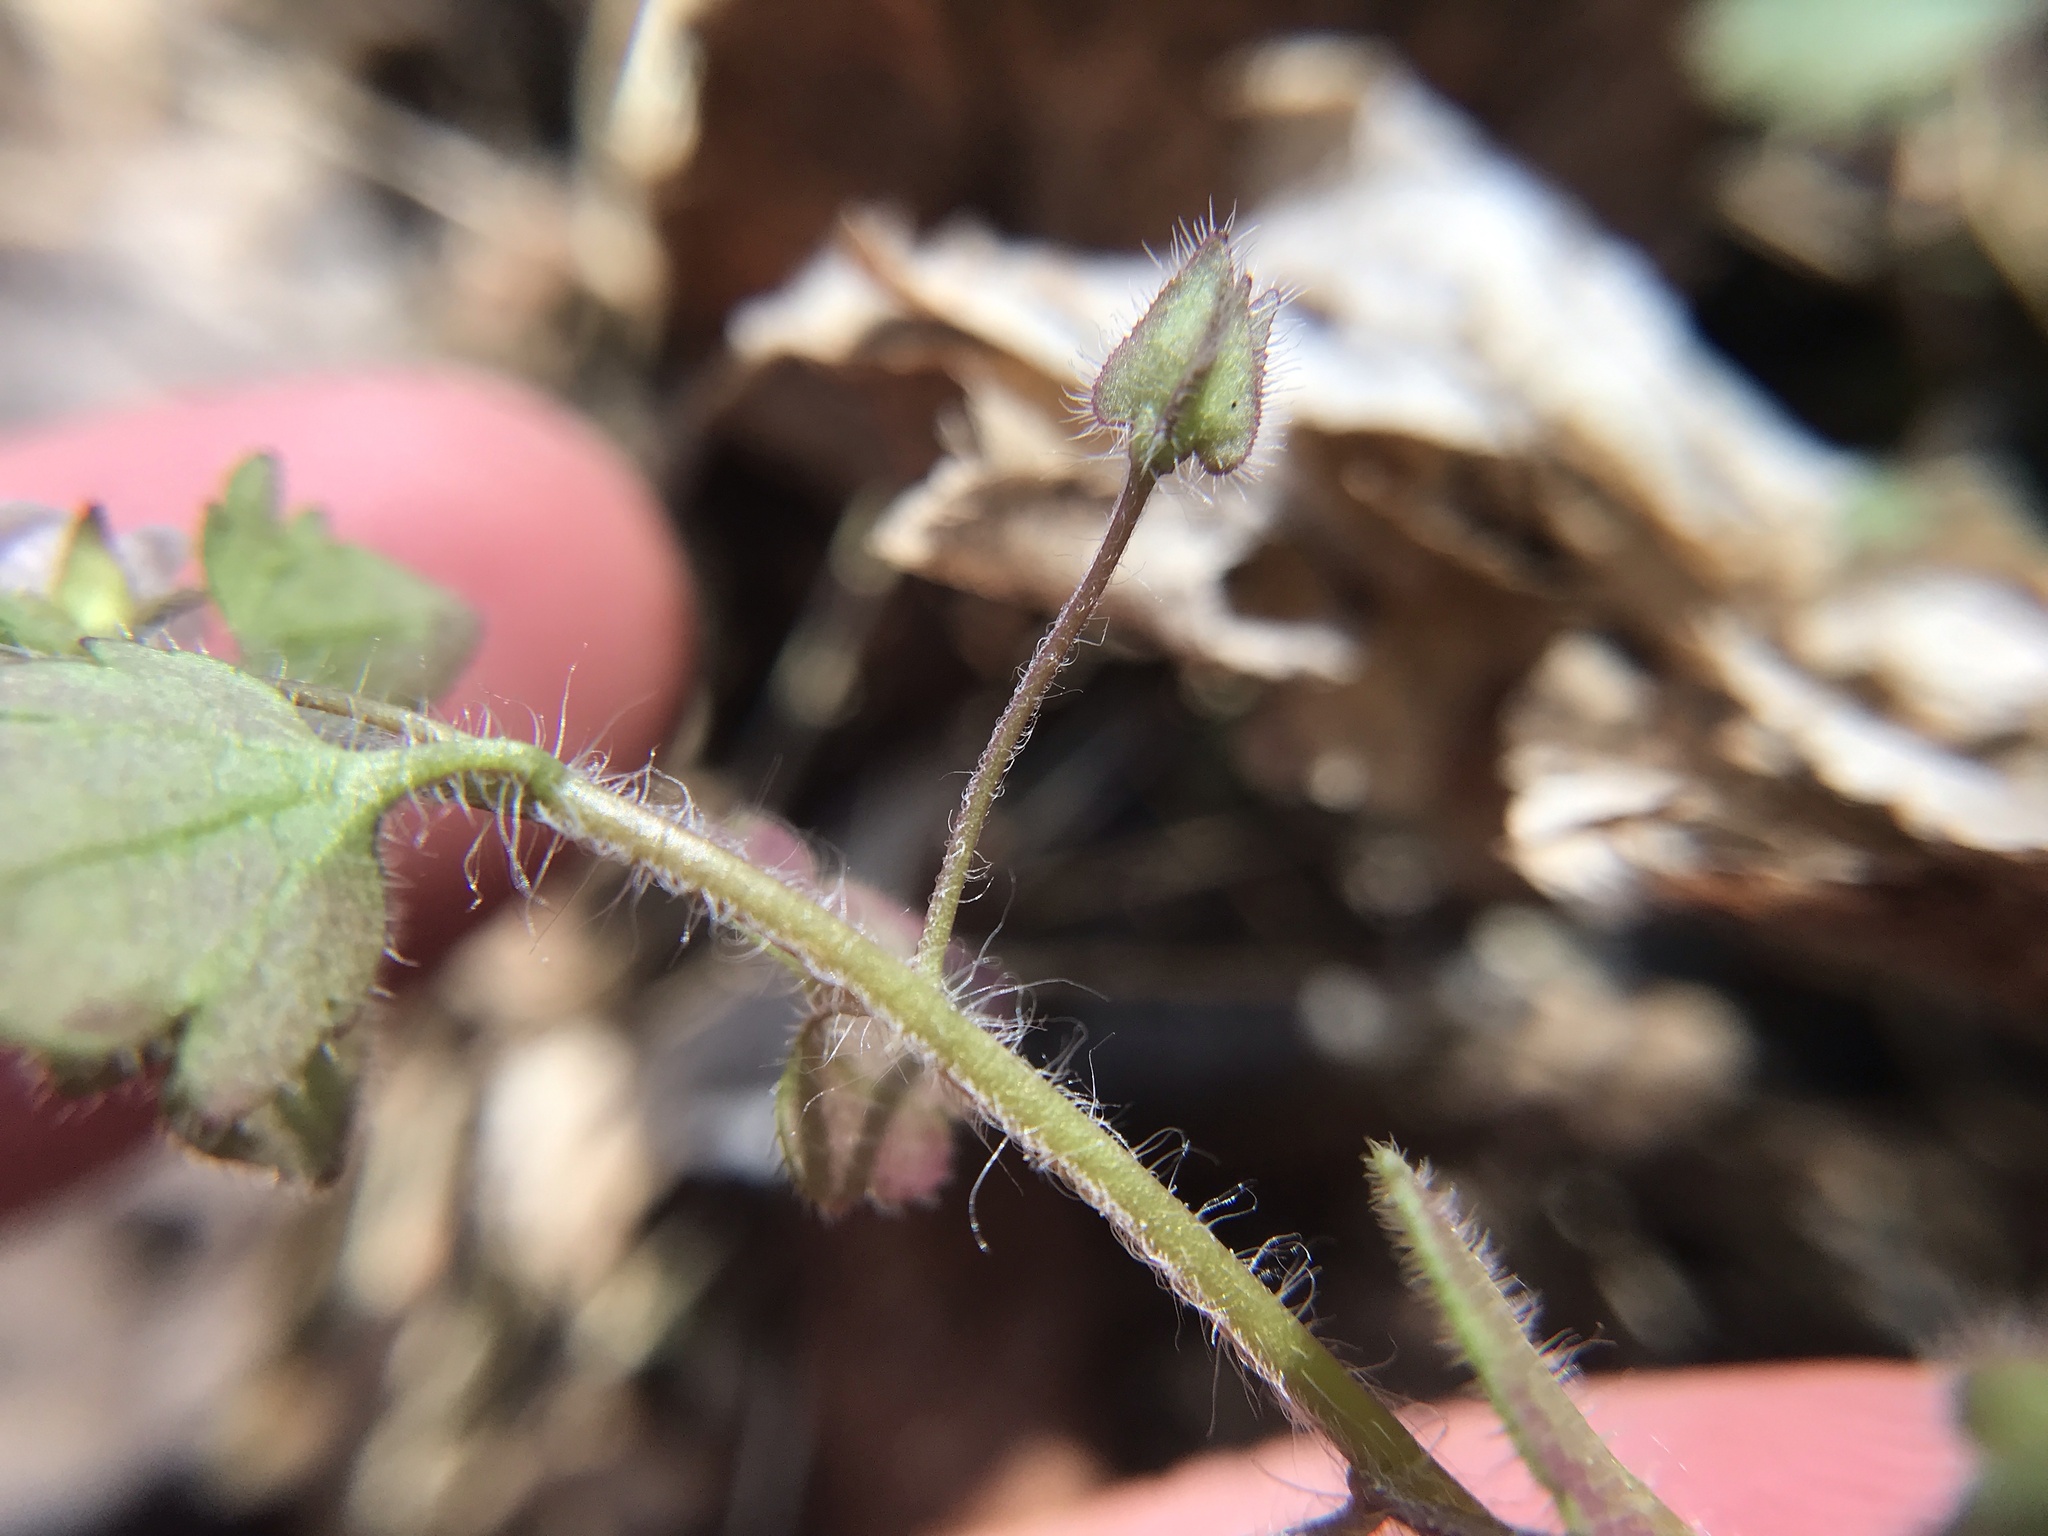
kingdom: Plantae
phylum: Tracheophyta
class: Magnoliopsida
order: Lamiales
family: Plantaginaceae
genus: Veronica
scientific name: Veronica sublobata
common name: False ivy-leaved speedwell
